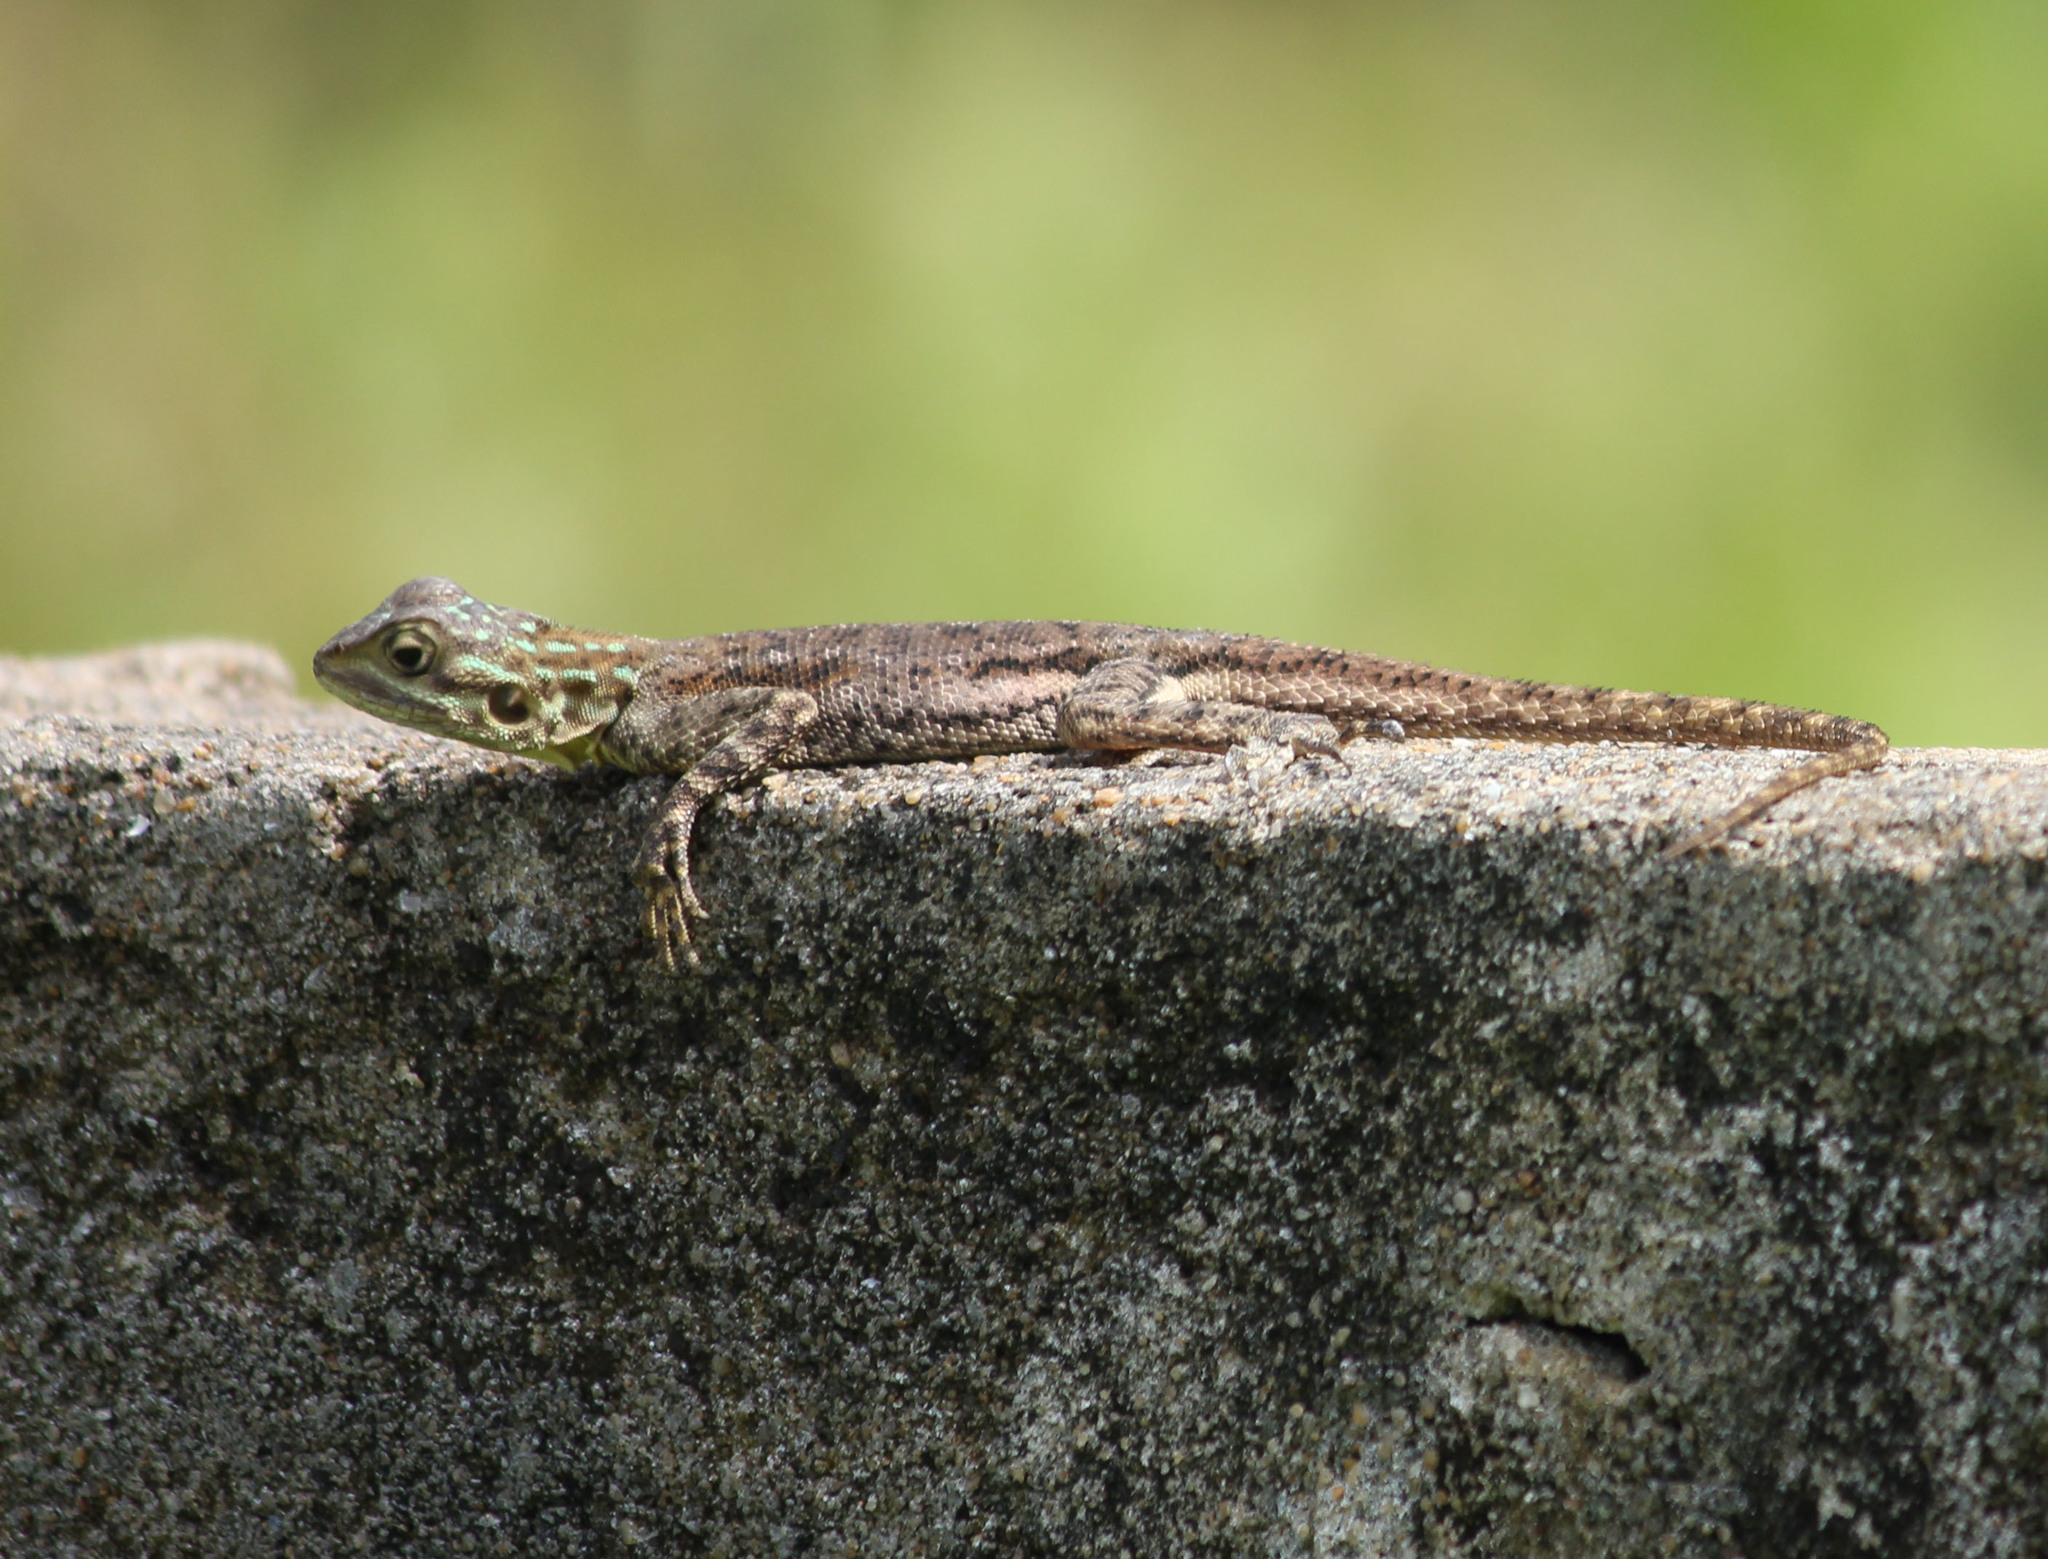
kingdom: Animalia
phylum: Chordata
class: Squamata
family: Agamidae
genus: Agama
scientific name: Agama agama
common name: Common agama
